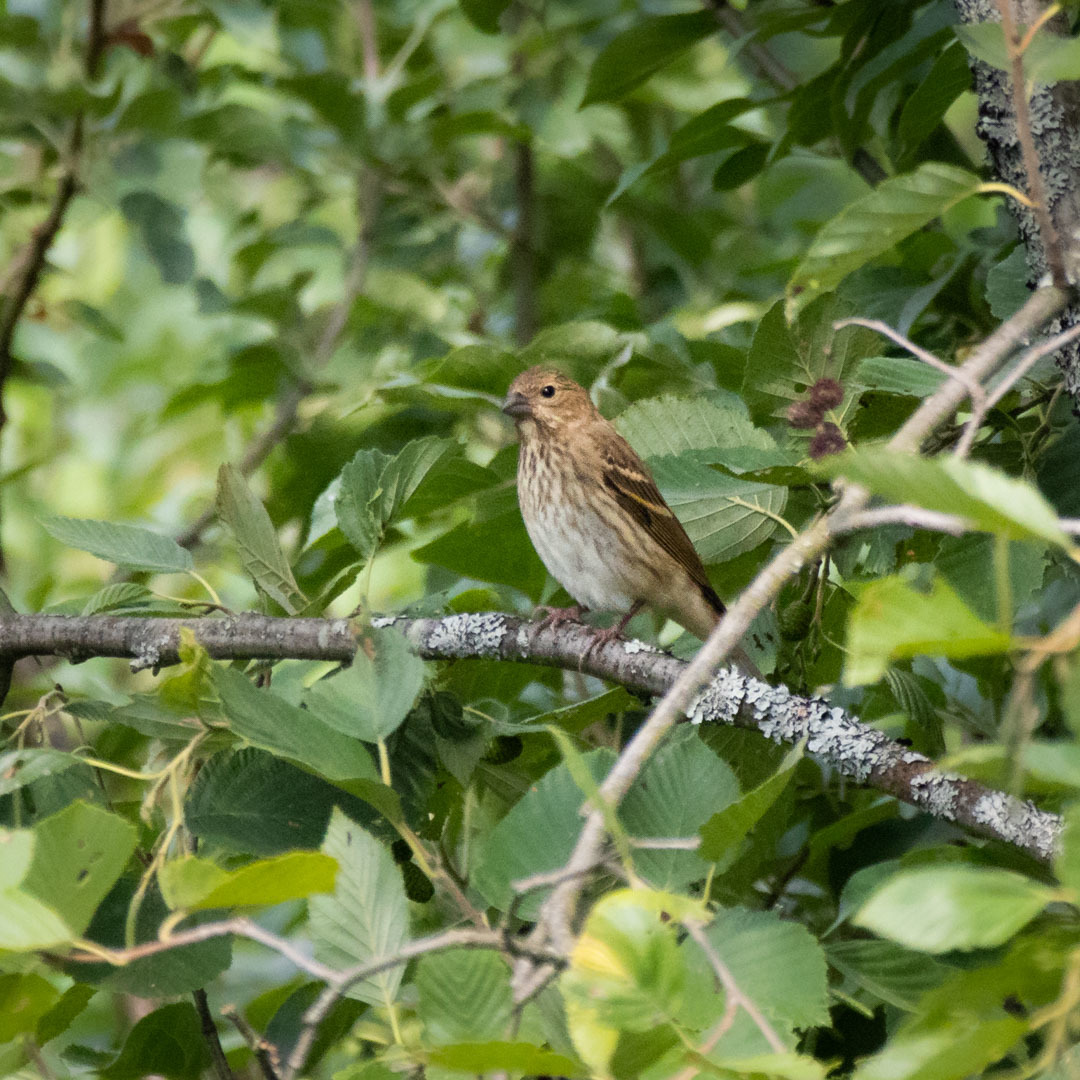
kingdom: Animalia
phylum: Chordata
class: Aves
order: Passeriformes
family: Fringillidae
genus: Carpodacus
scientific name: Carpodacus erythrinus
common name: Common rosefinch
